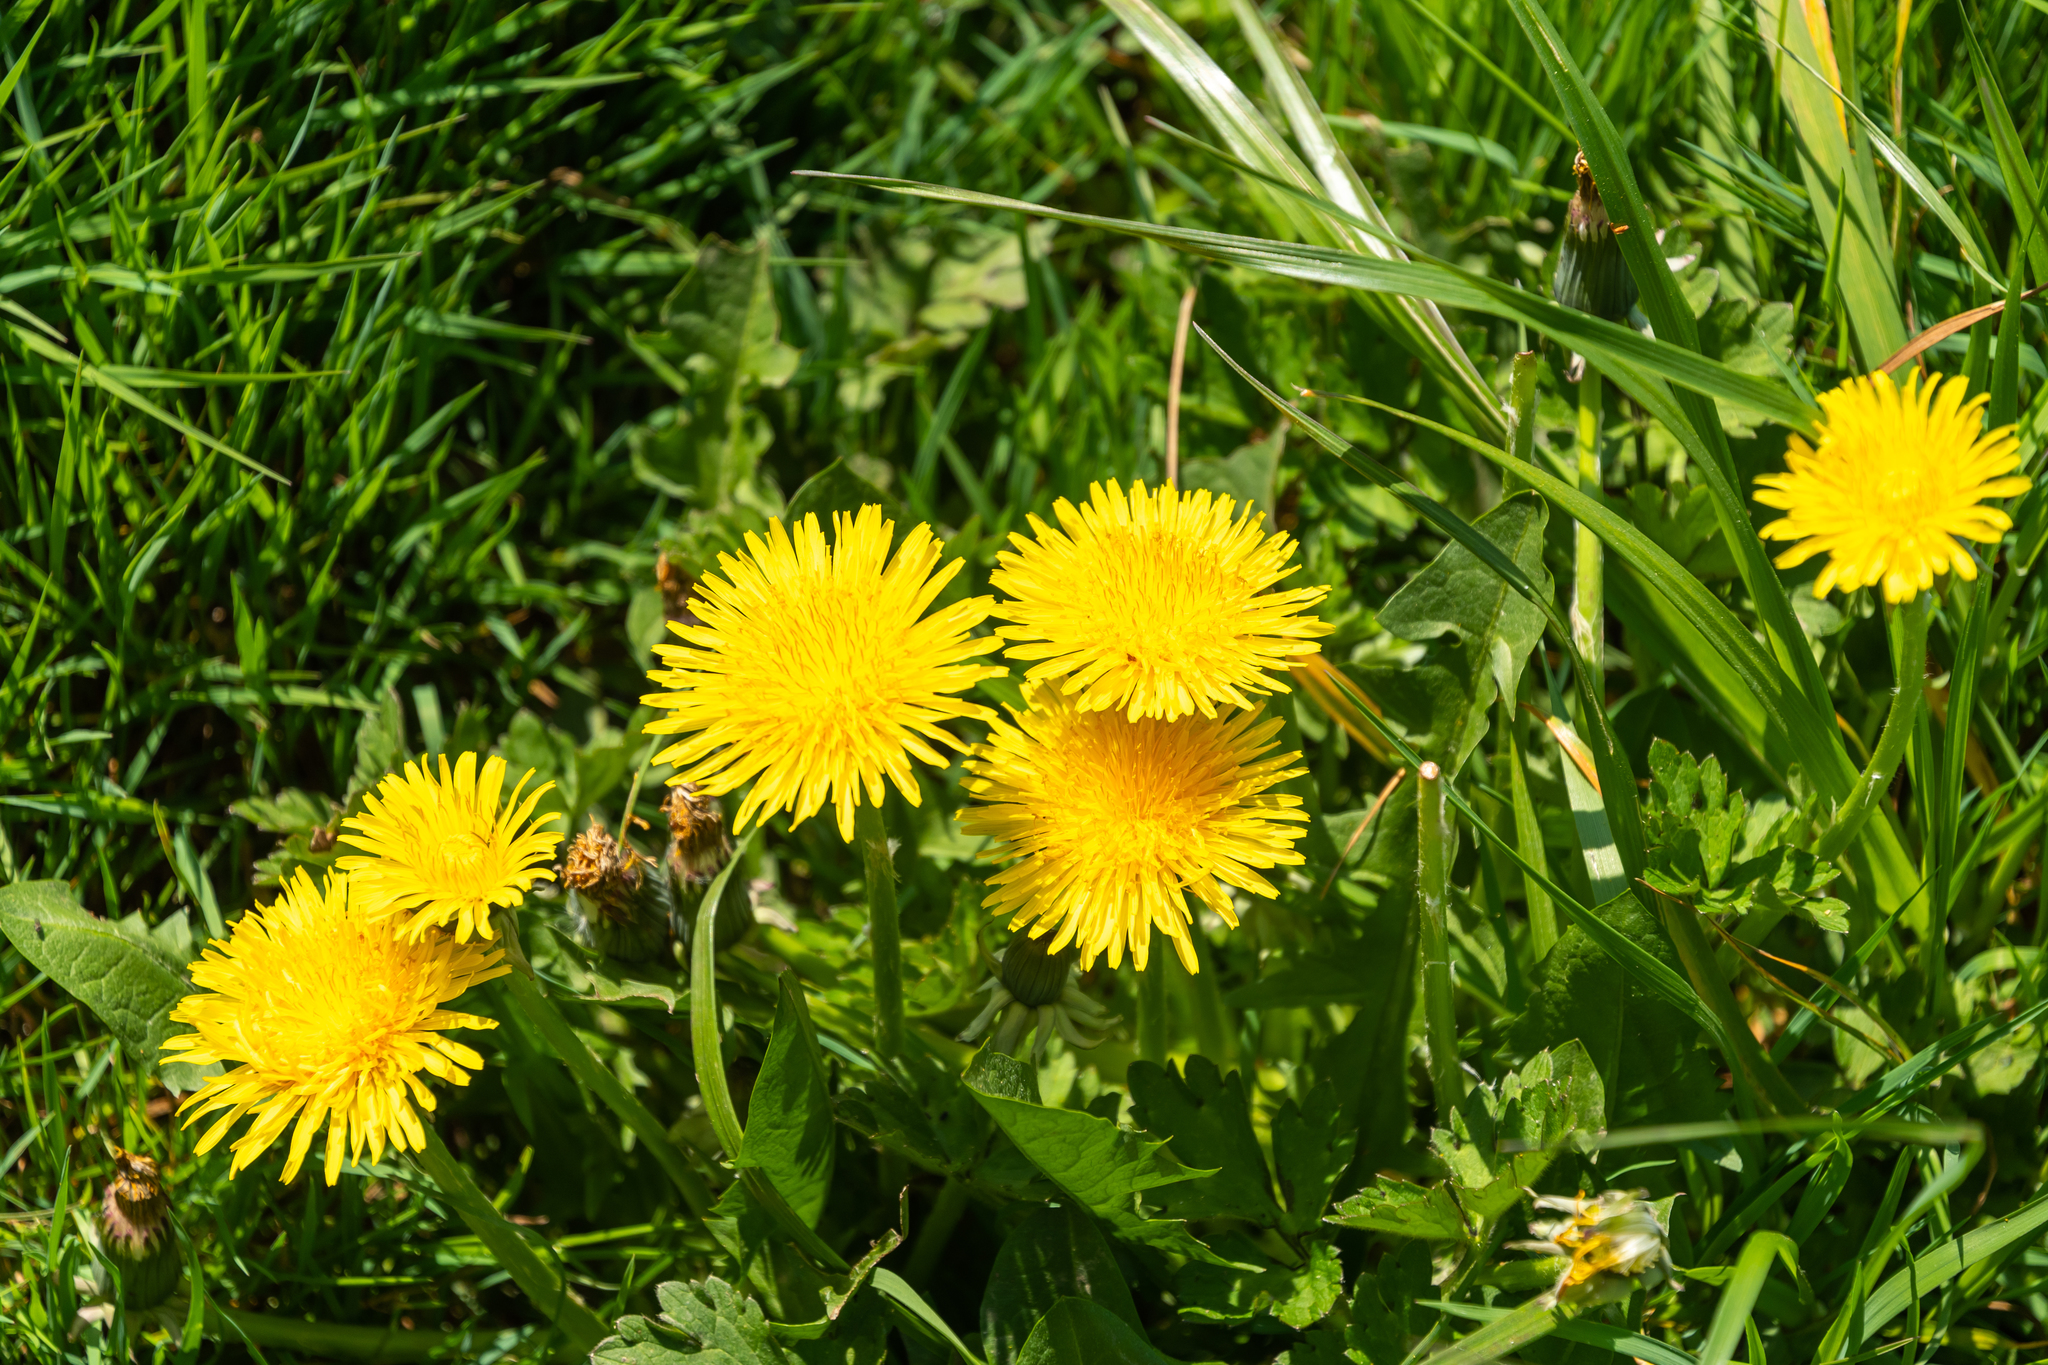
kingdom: Plantae
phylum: Tracheophyta
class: Magnoliopsida
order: Asterales
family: Asteraceae
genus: Taraxacum
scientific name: Taraxacum officinale
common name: Common dandelion
